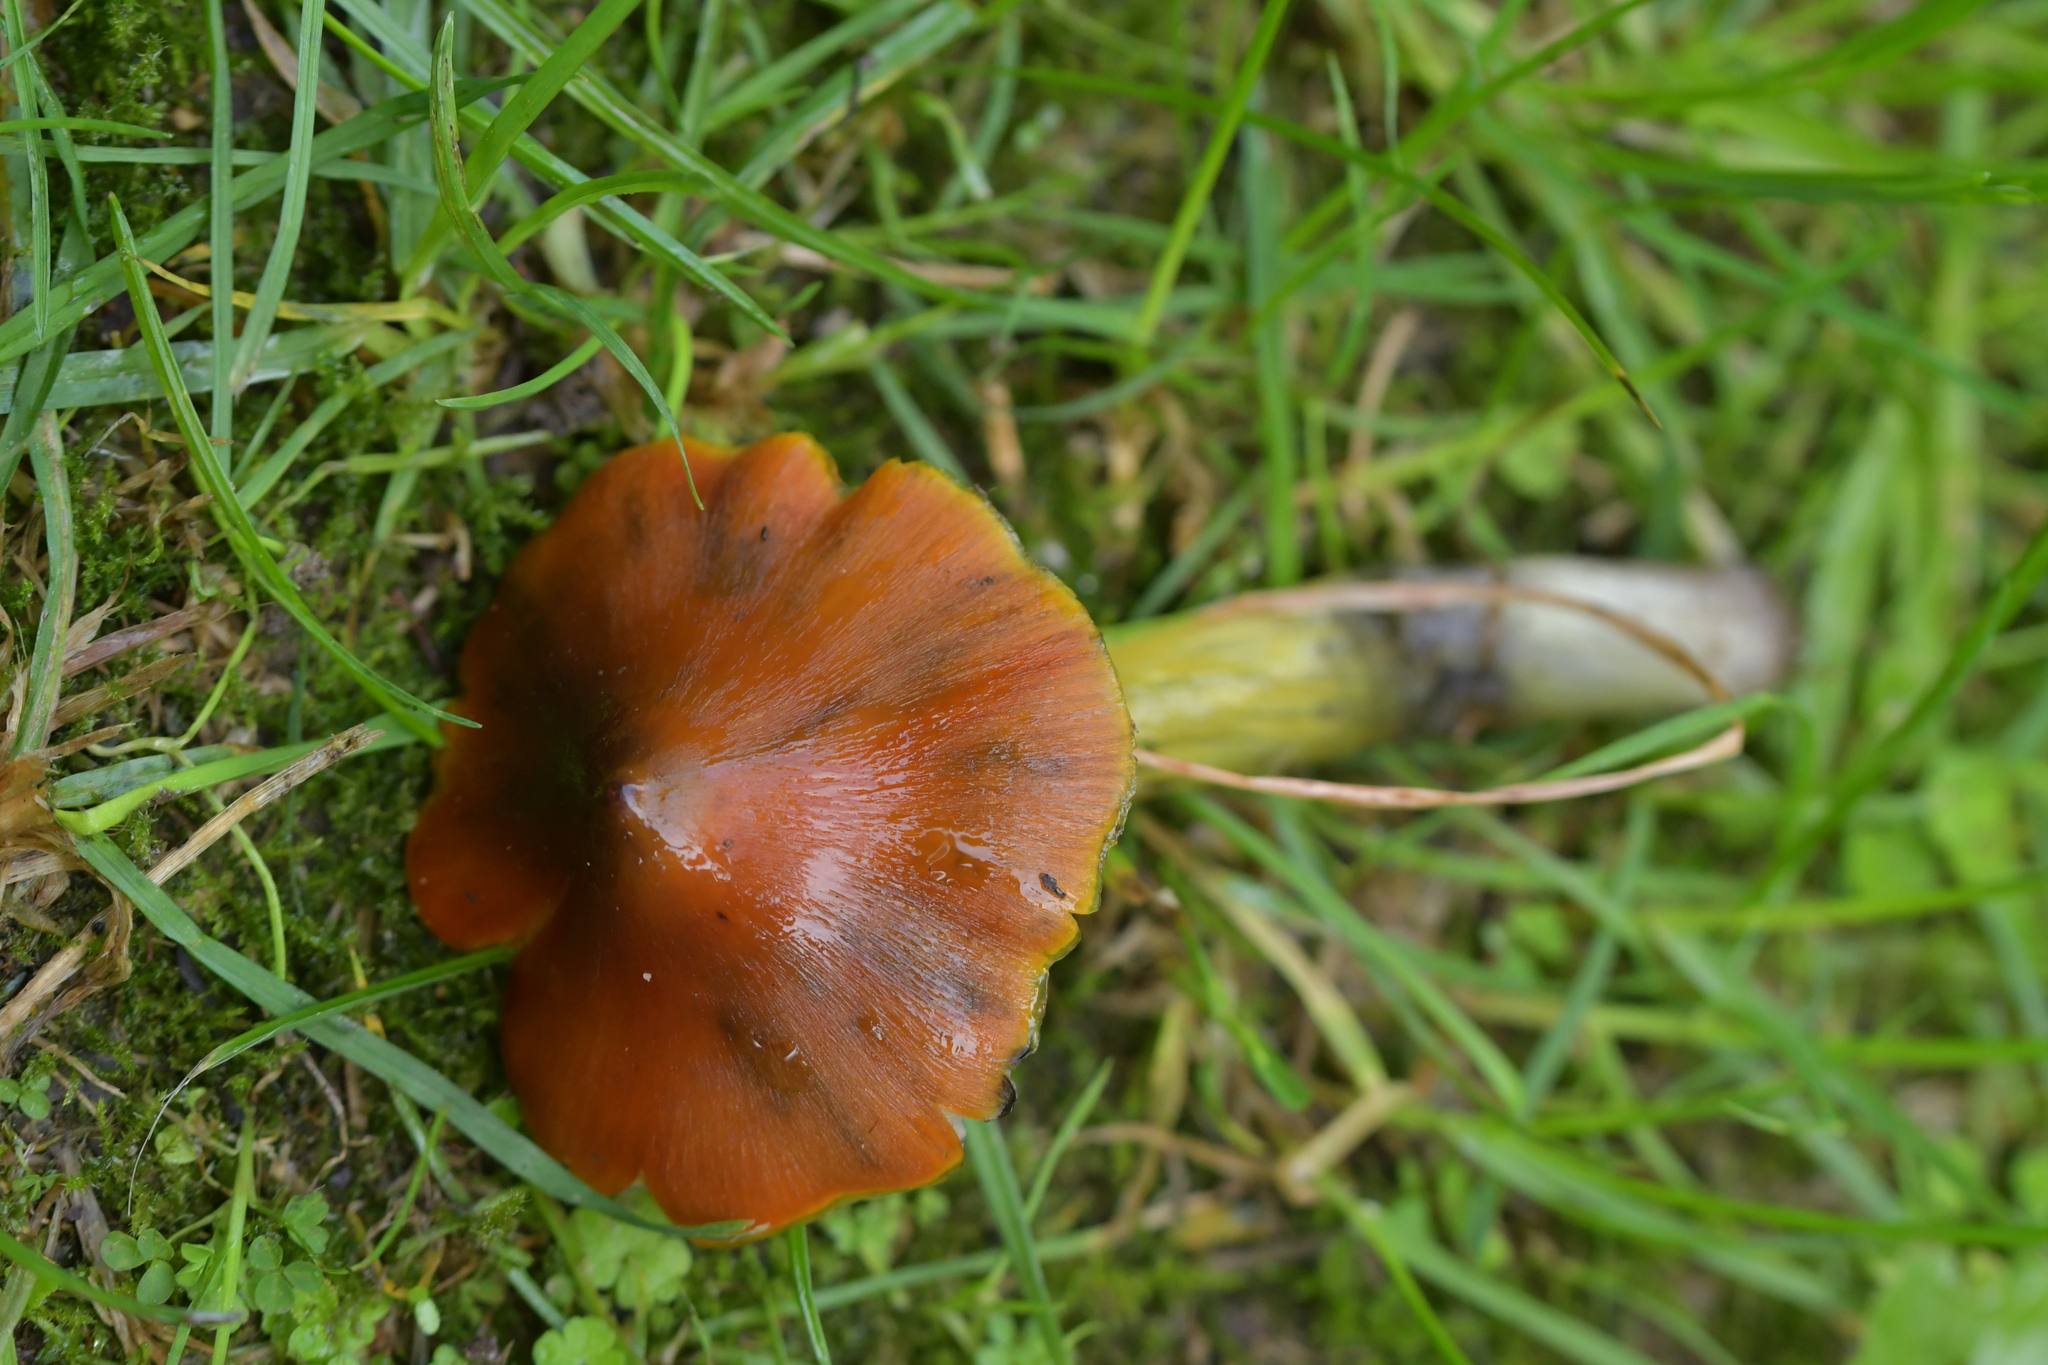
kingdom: Fungi
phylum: Basidiomycota
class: Agaricomycetes
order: Agaricales
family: Hygrophoraceae
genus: Hygrocybe
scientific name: Hygrocybe conica
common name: Blackening wax-cap
